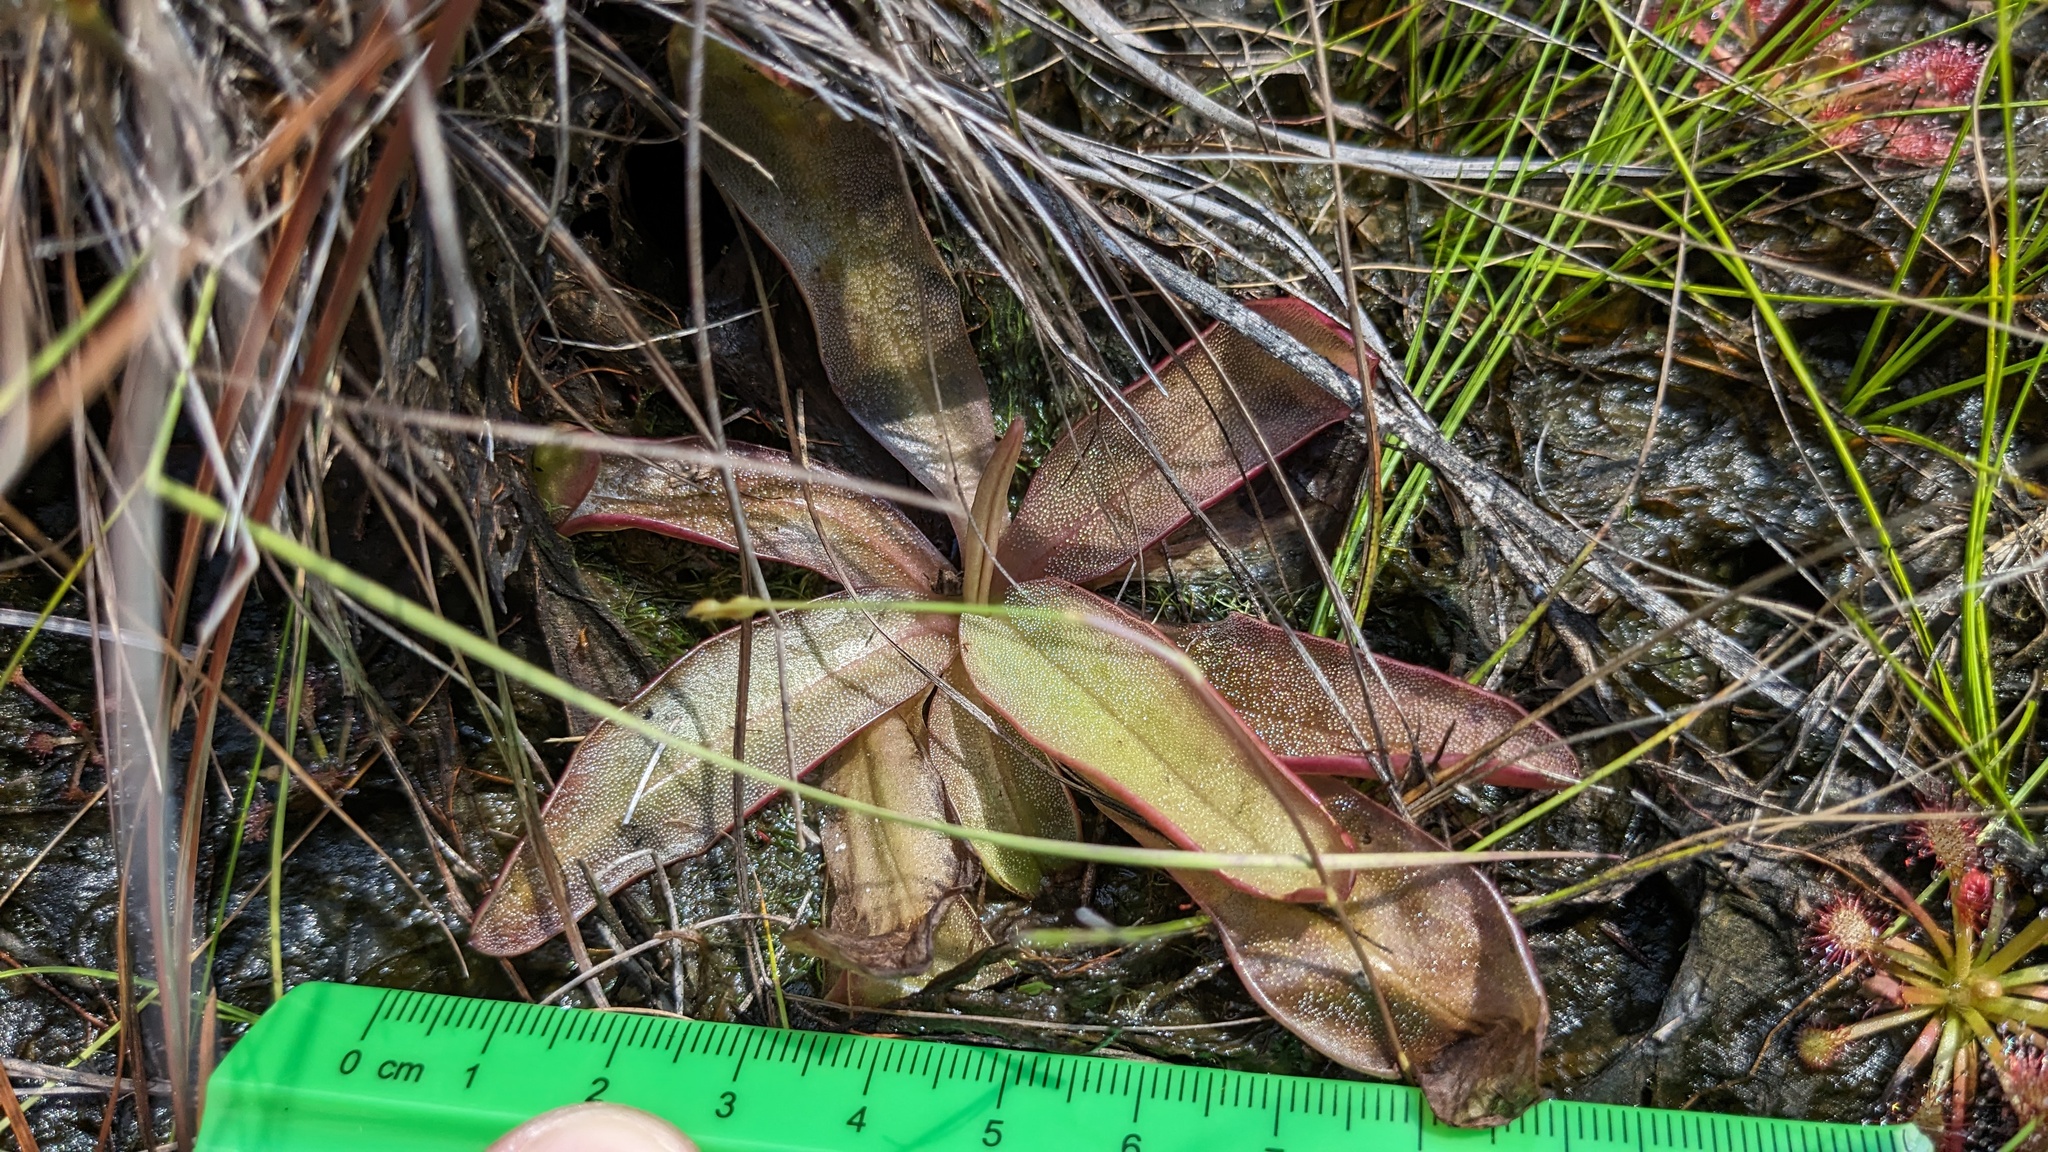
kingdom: Plantae
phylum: Tracheophyta
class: Magnoliopsida
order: Lamiales
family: Lentibulariaceae
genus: Pinguicula
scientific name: Pinguicula planifolia
